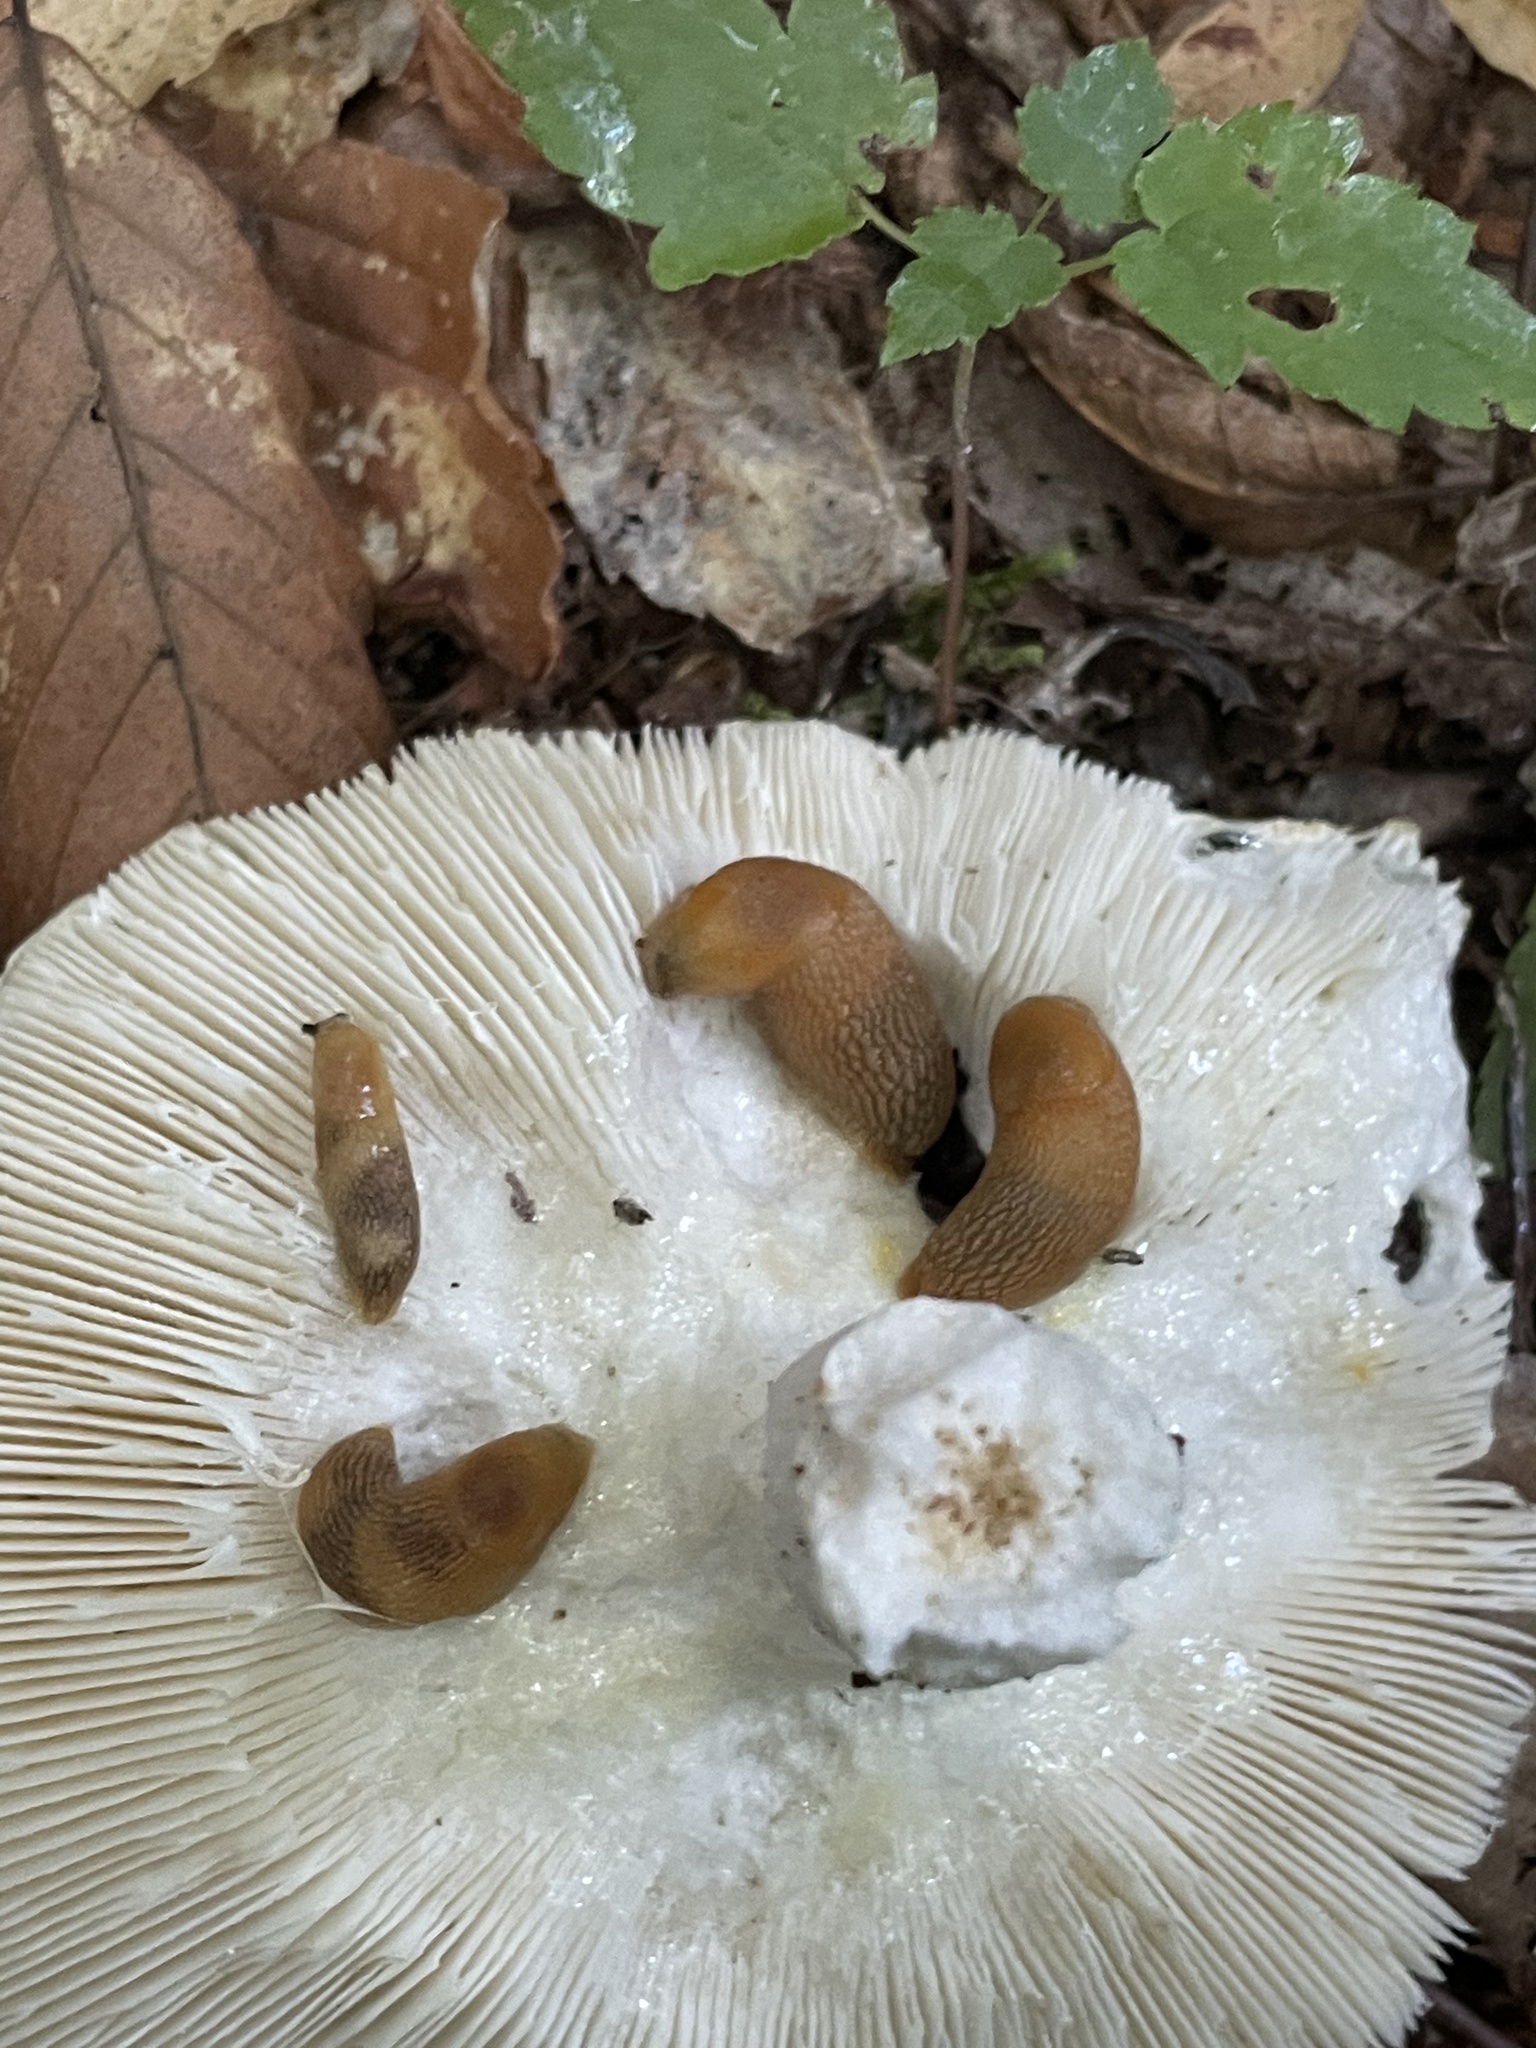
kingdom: Animalia
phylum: Mollusca
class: Gastropoda
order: Stylommatophora
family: Arionidae
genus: Arion
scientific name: Arion subfuscus
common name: Dusky arion
